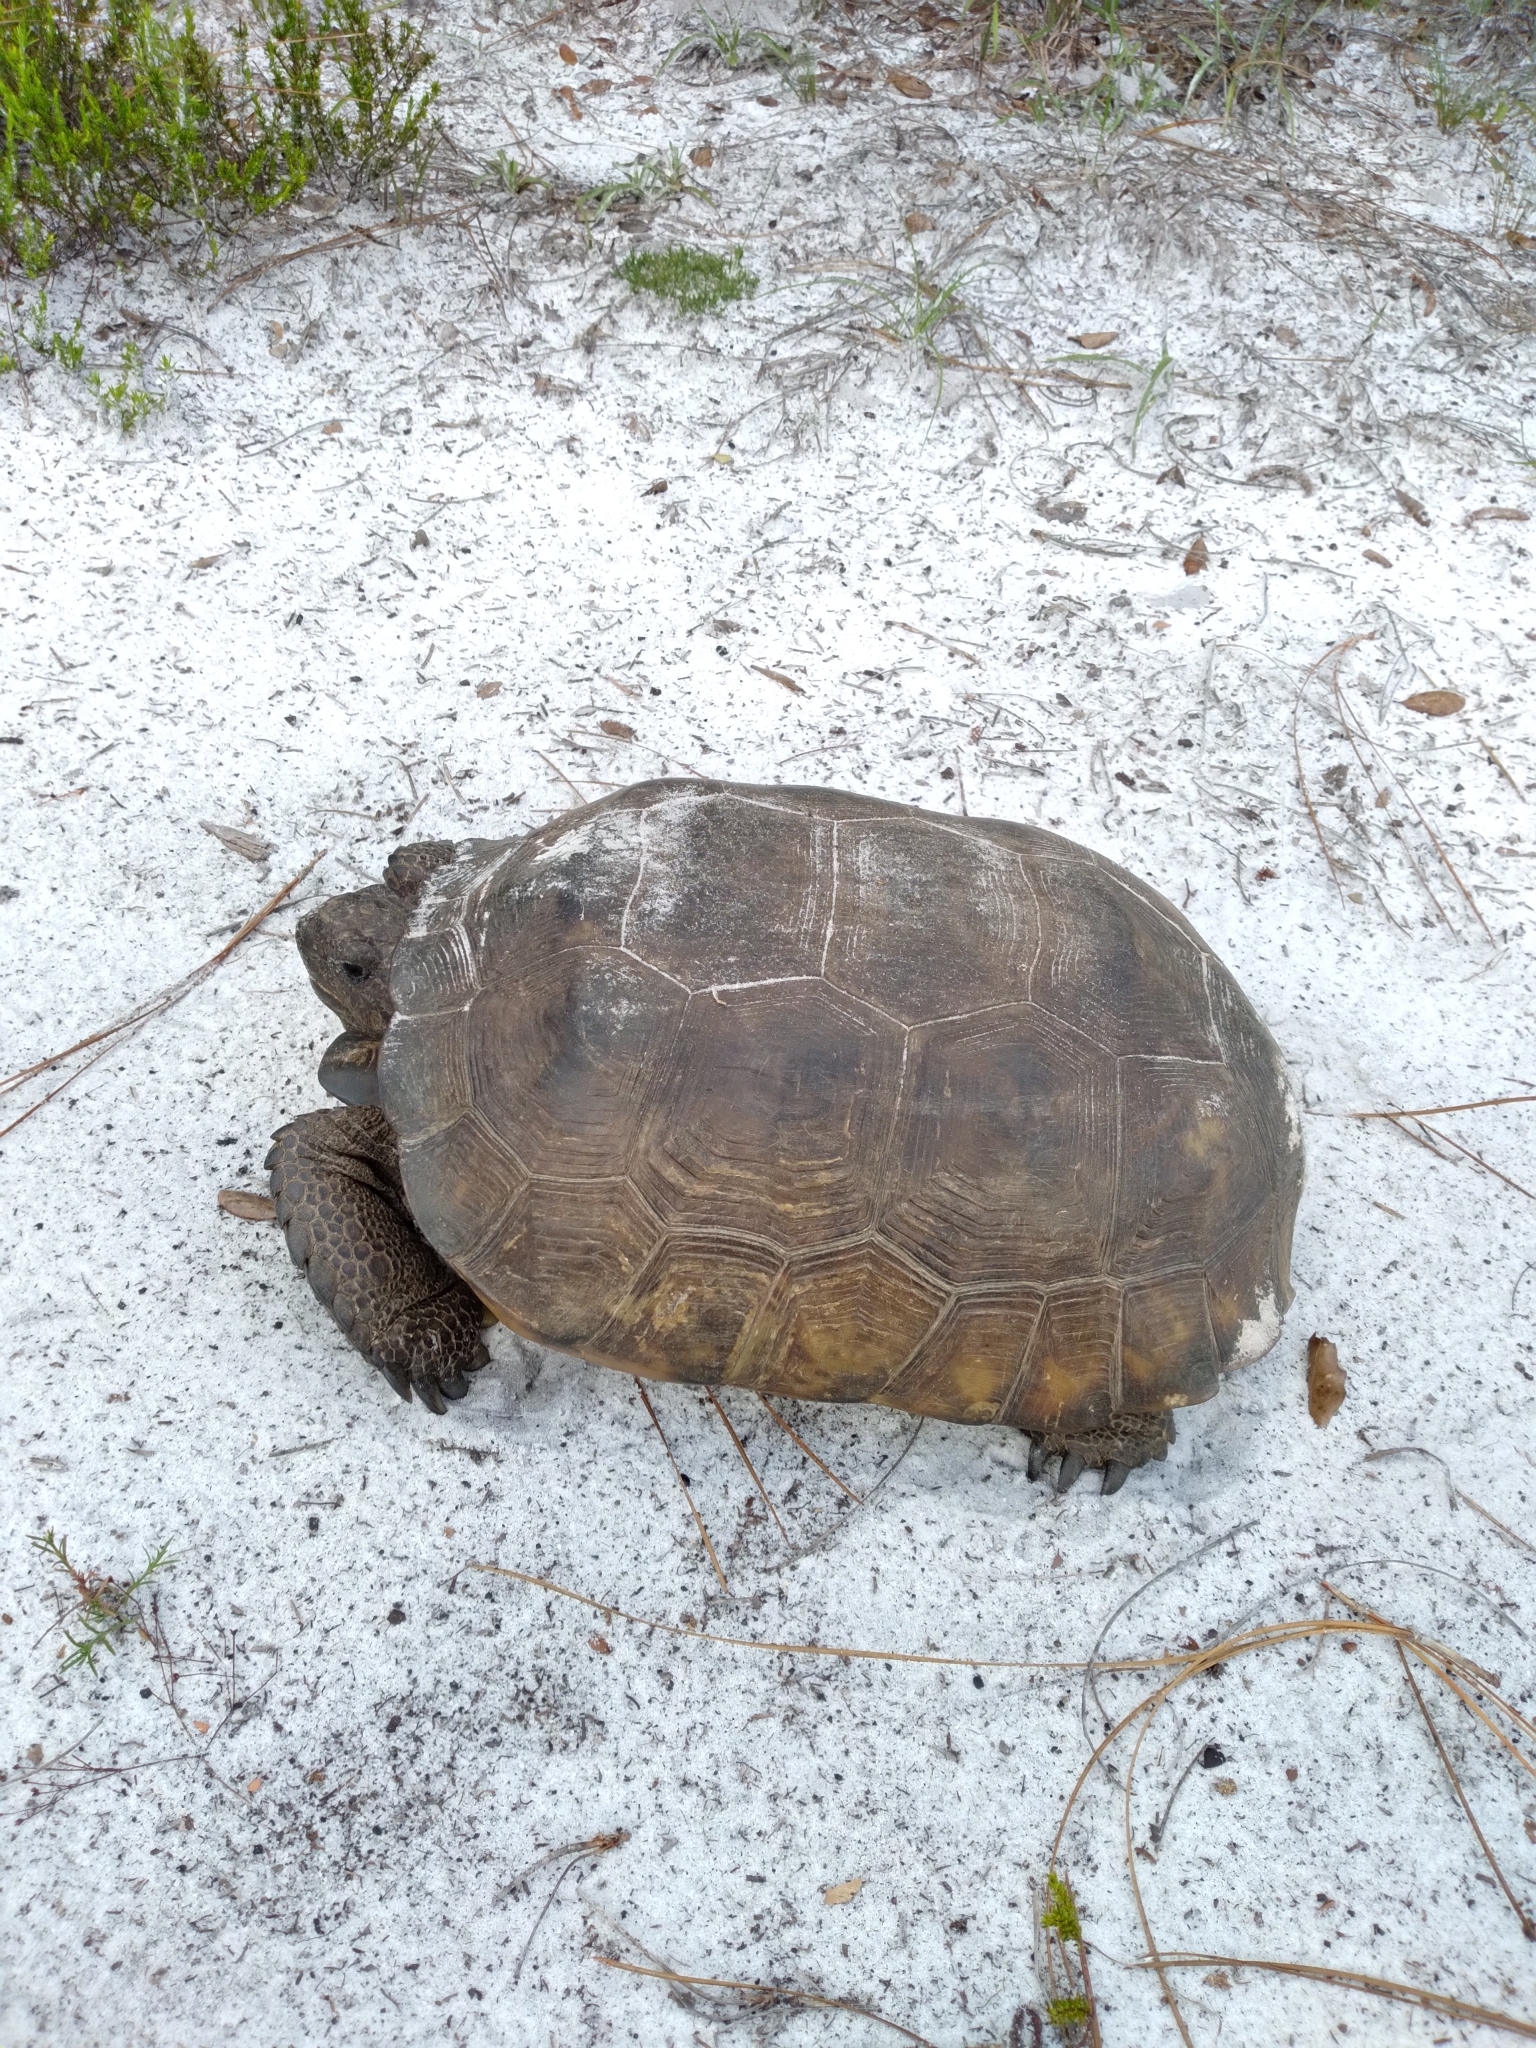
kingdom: Animalia
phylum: Chordata
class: Testudines
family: Testudinidae
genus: Gopherus
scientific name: Gopherus polyphemus
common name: Florida gopher tortoise
